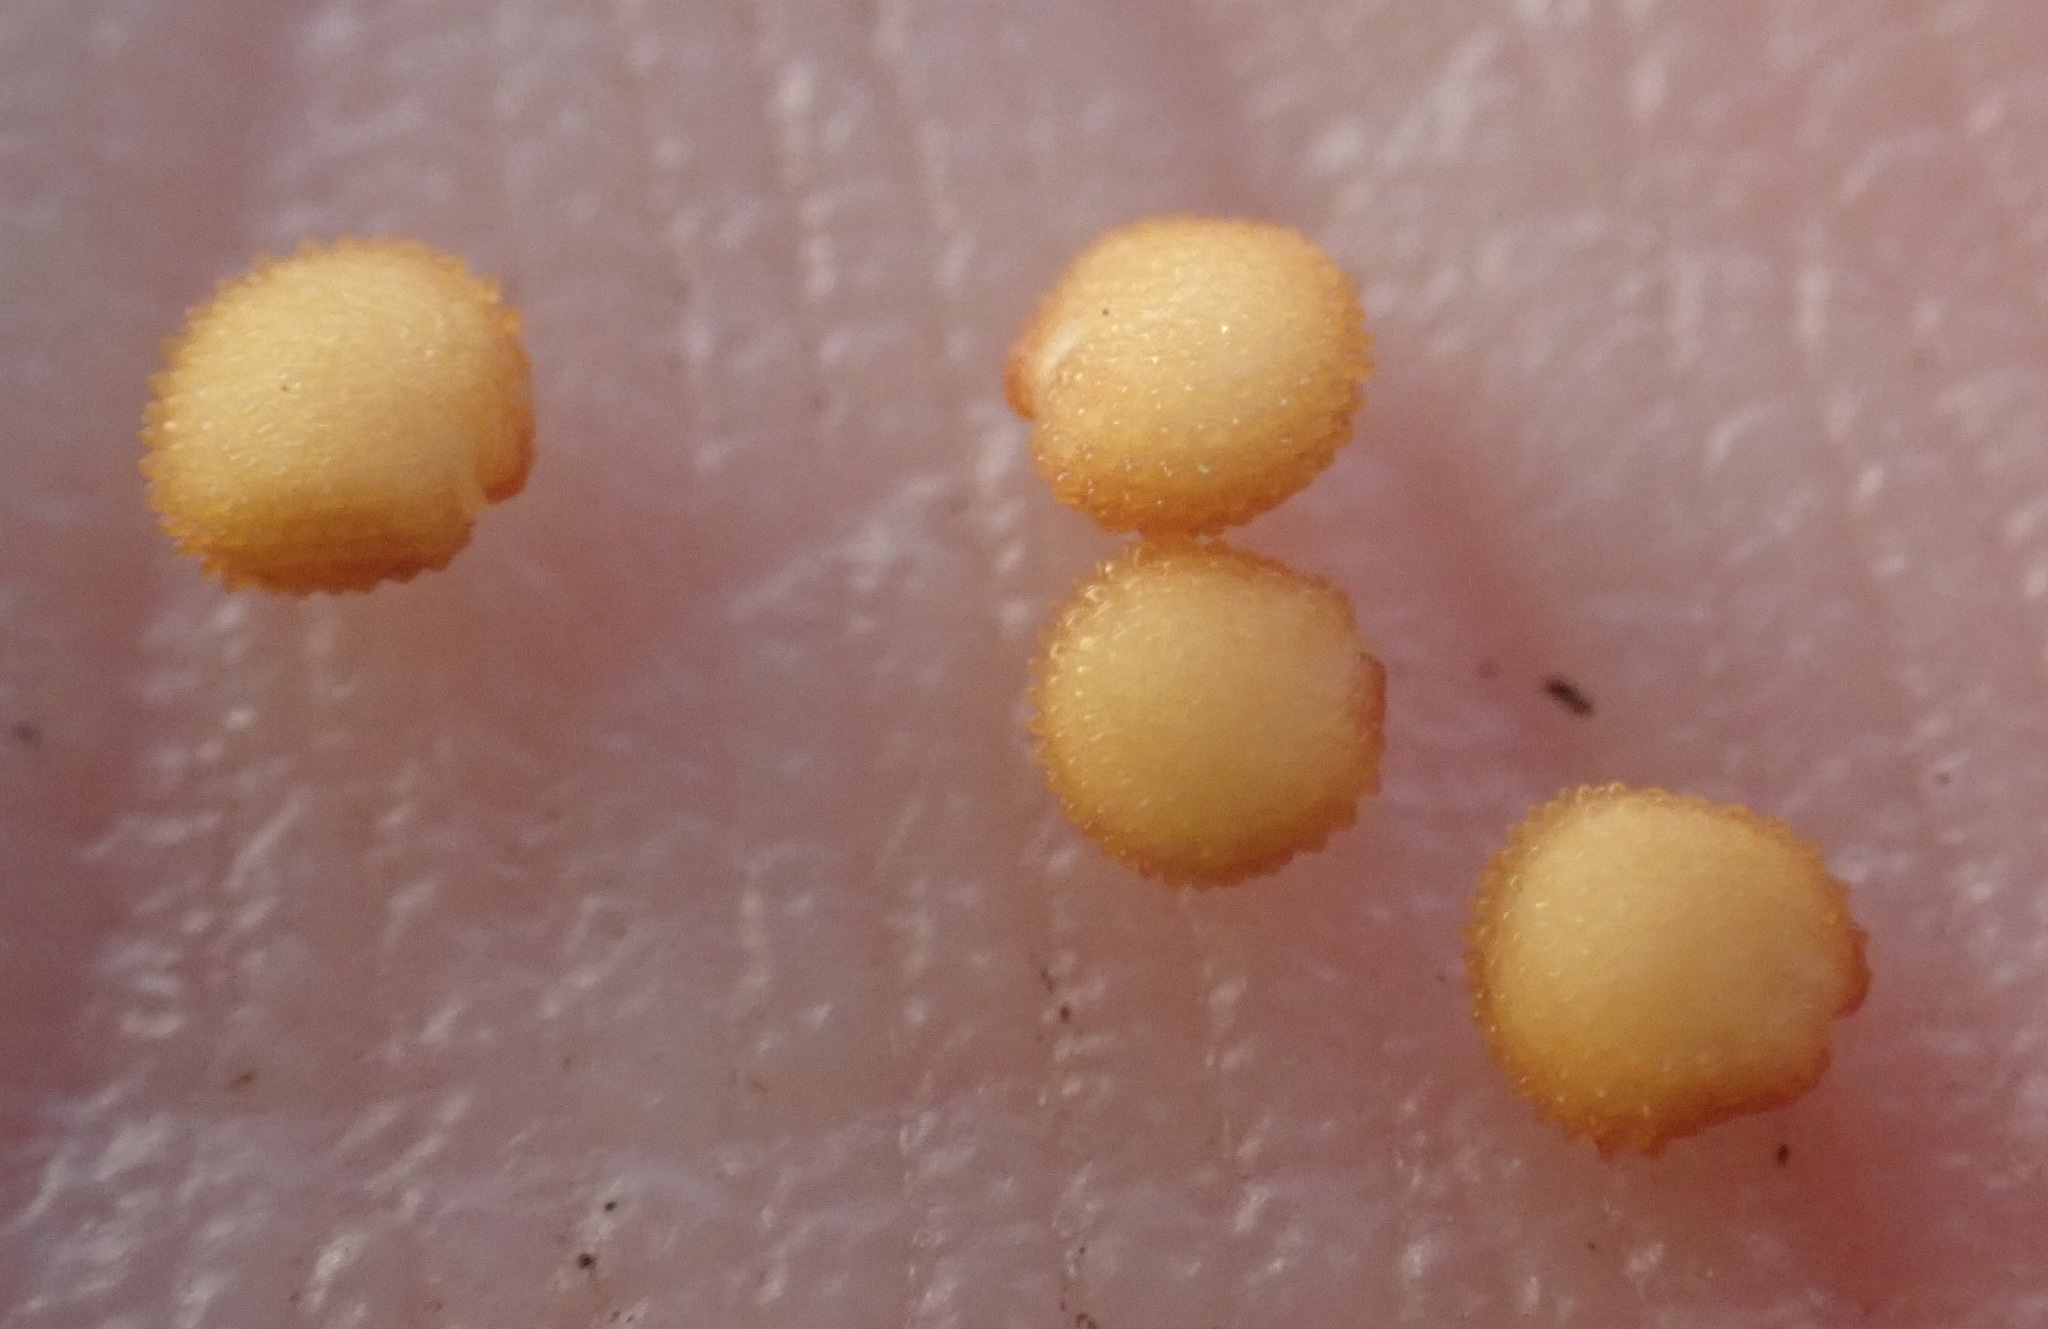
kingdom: Plantae
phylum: Tracheophyta
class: Magnoliopsida
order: Caryophyllales
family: Caryophyllaceae
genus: Stellaria
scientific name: Stellaria media
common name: Common chickweed
